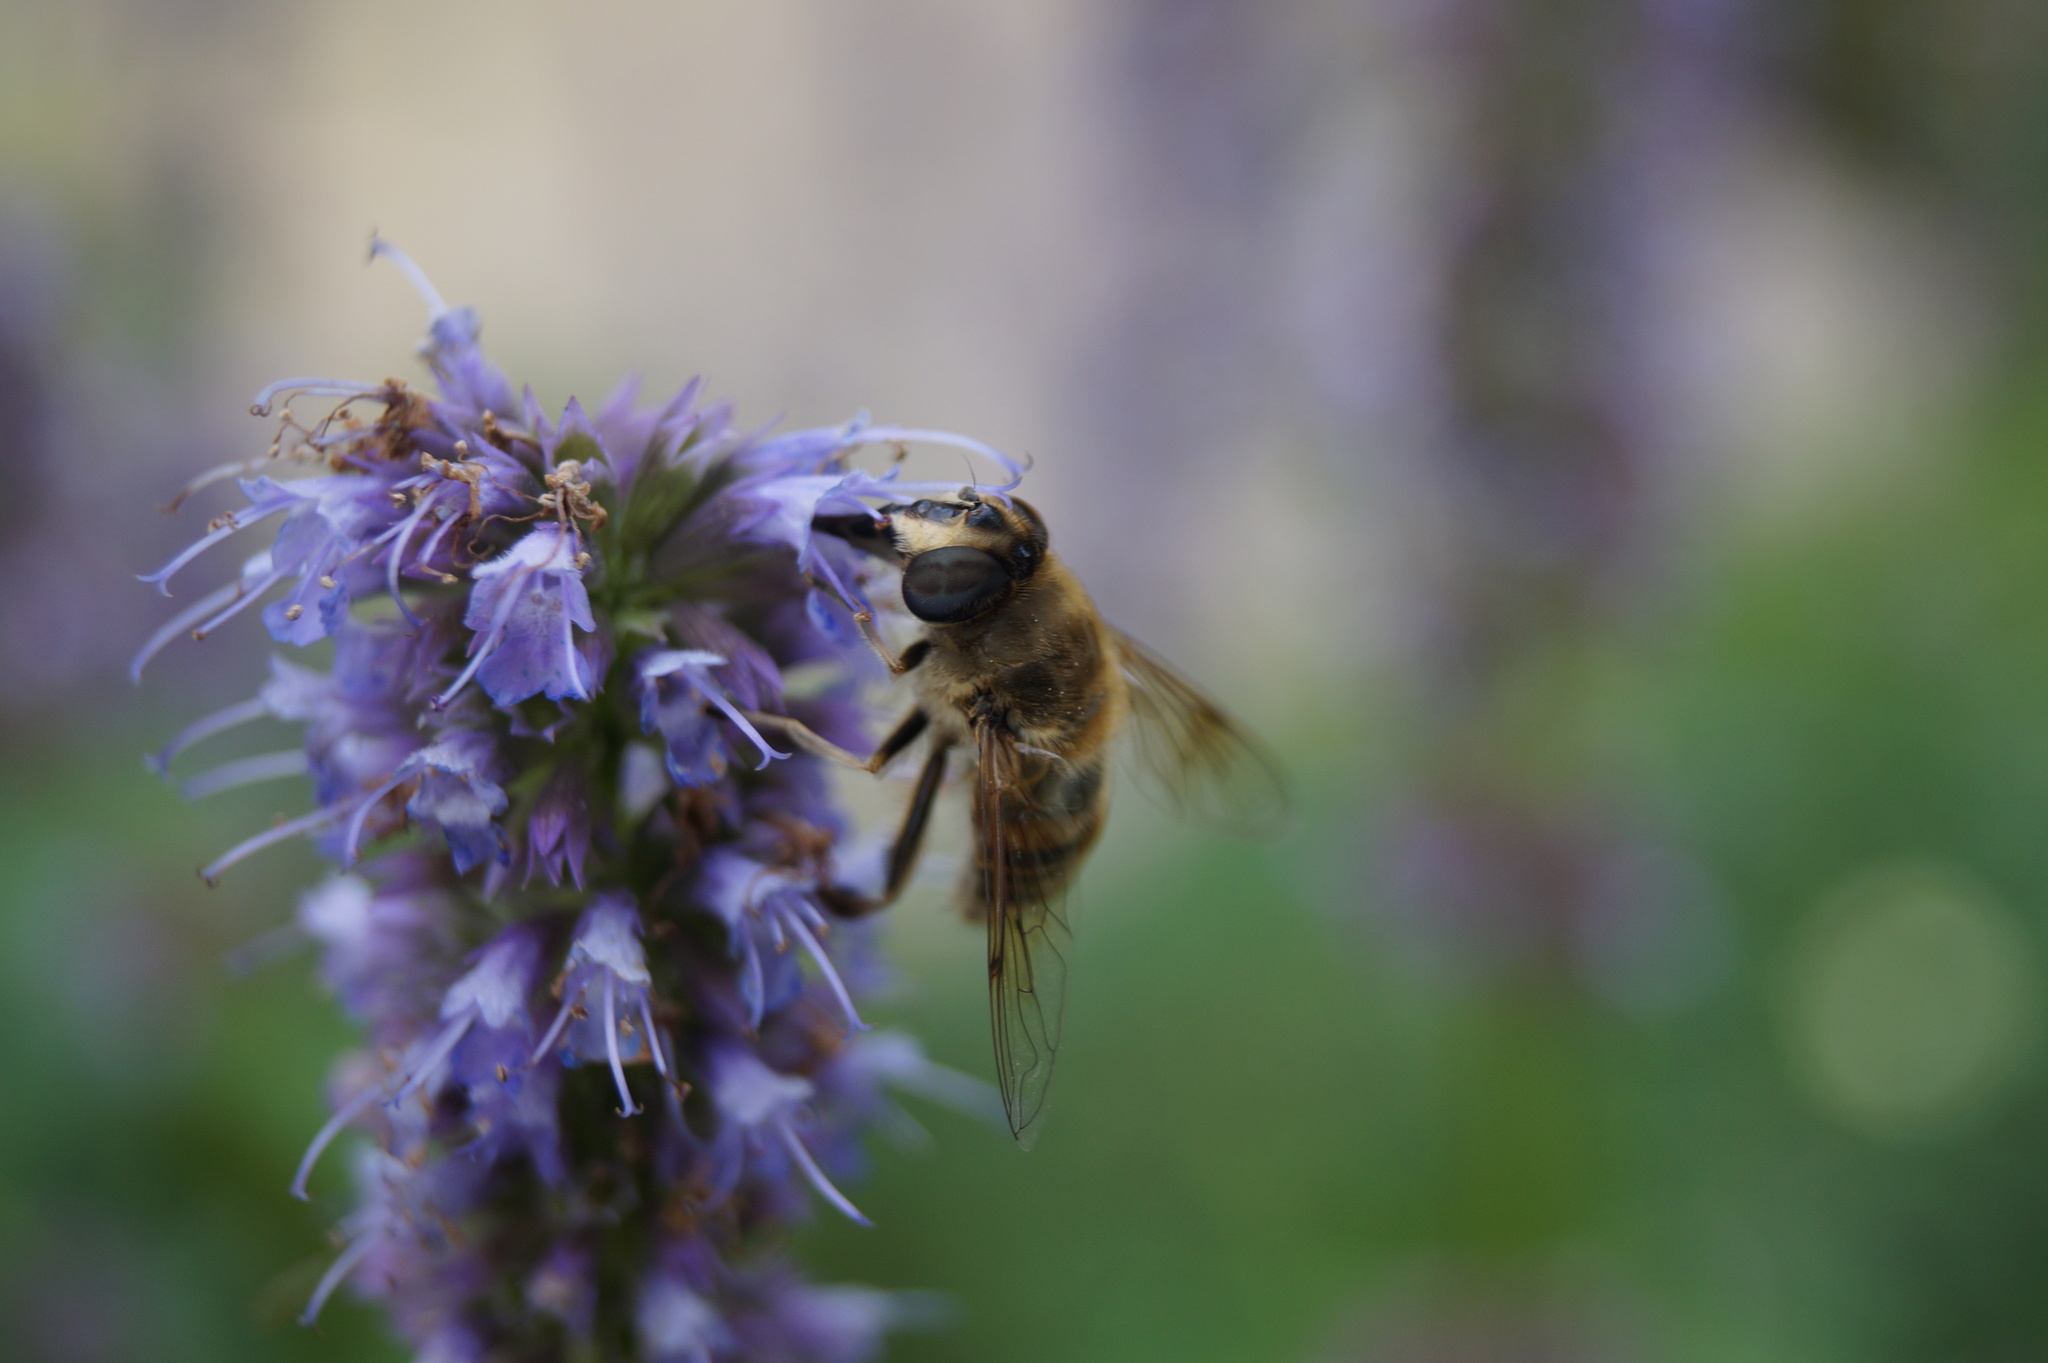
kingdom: Animalia
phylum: Arthropoda
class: Insecta
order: Diptera
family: Syrphidae
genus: Eristalis
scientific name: Eristalis tenax
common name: Drone fly
